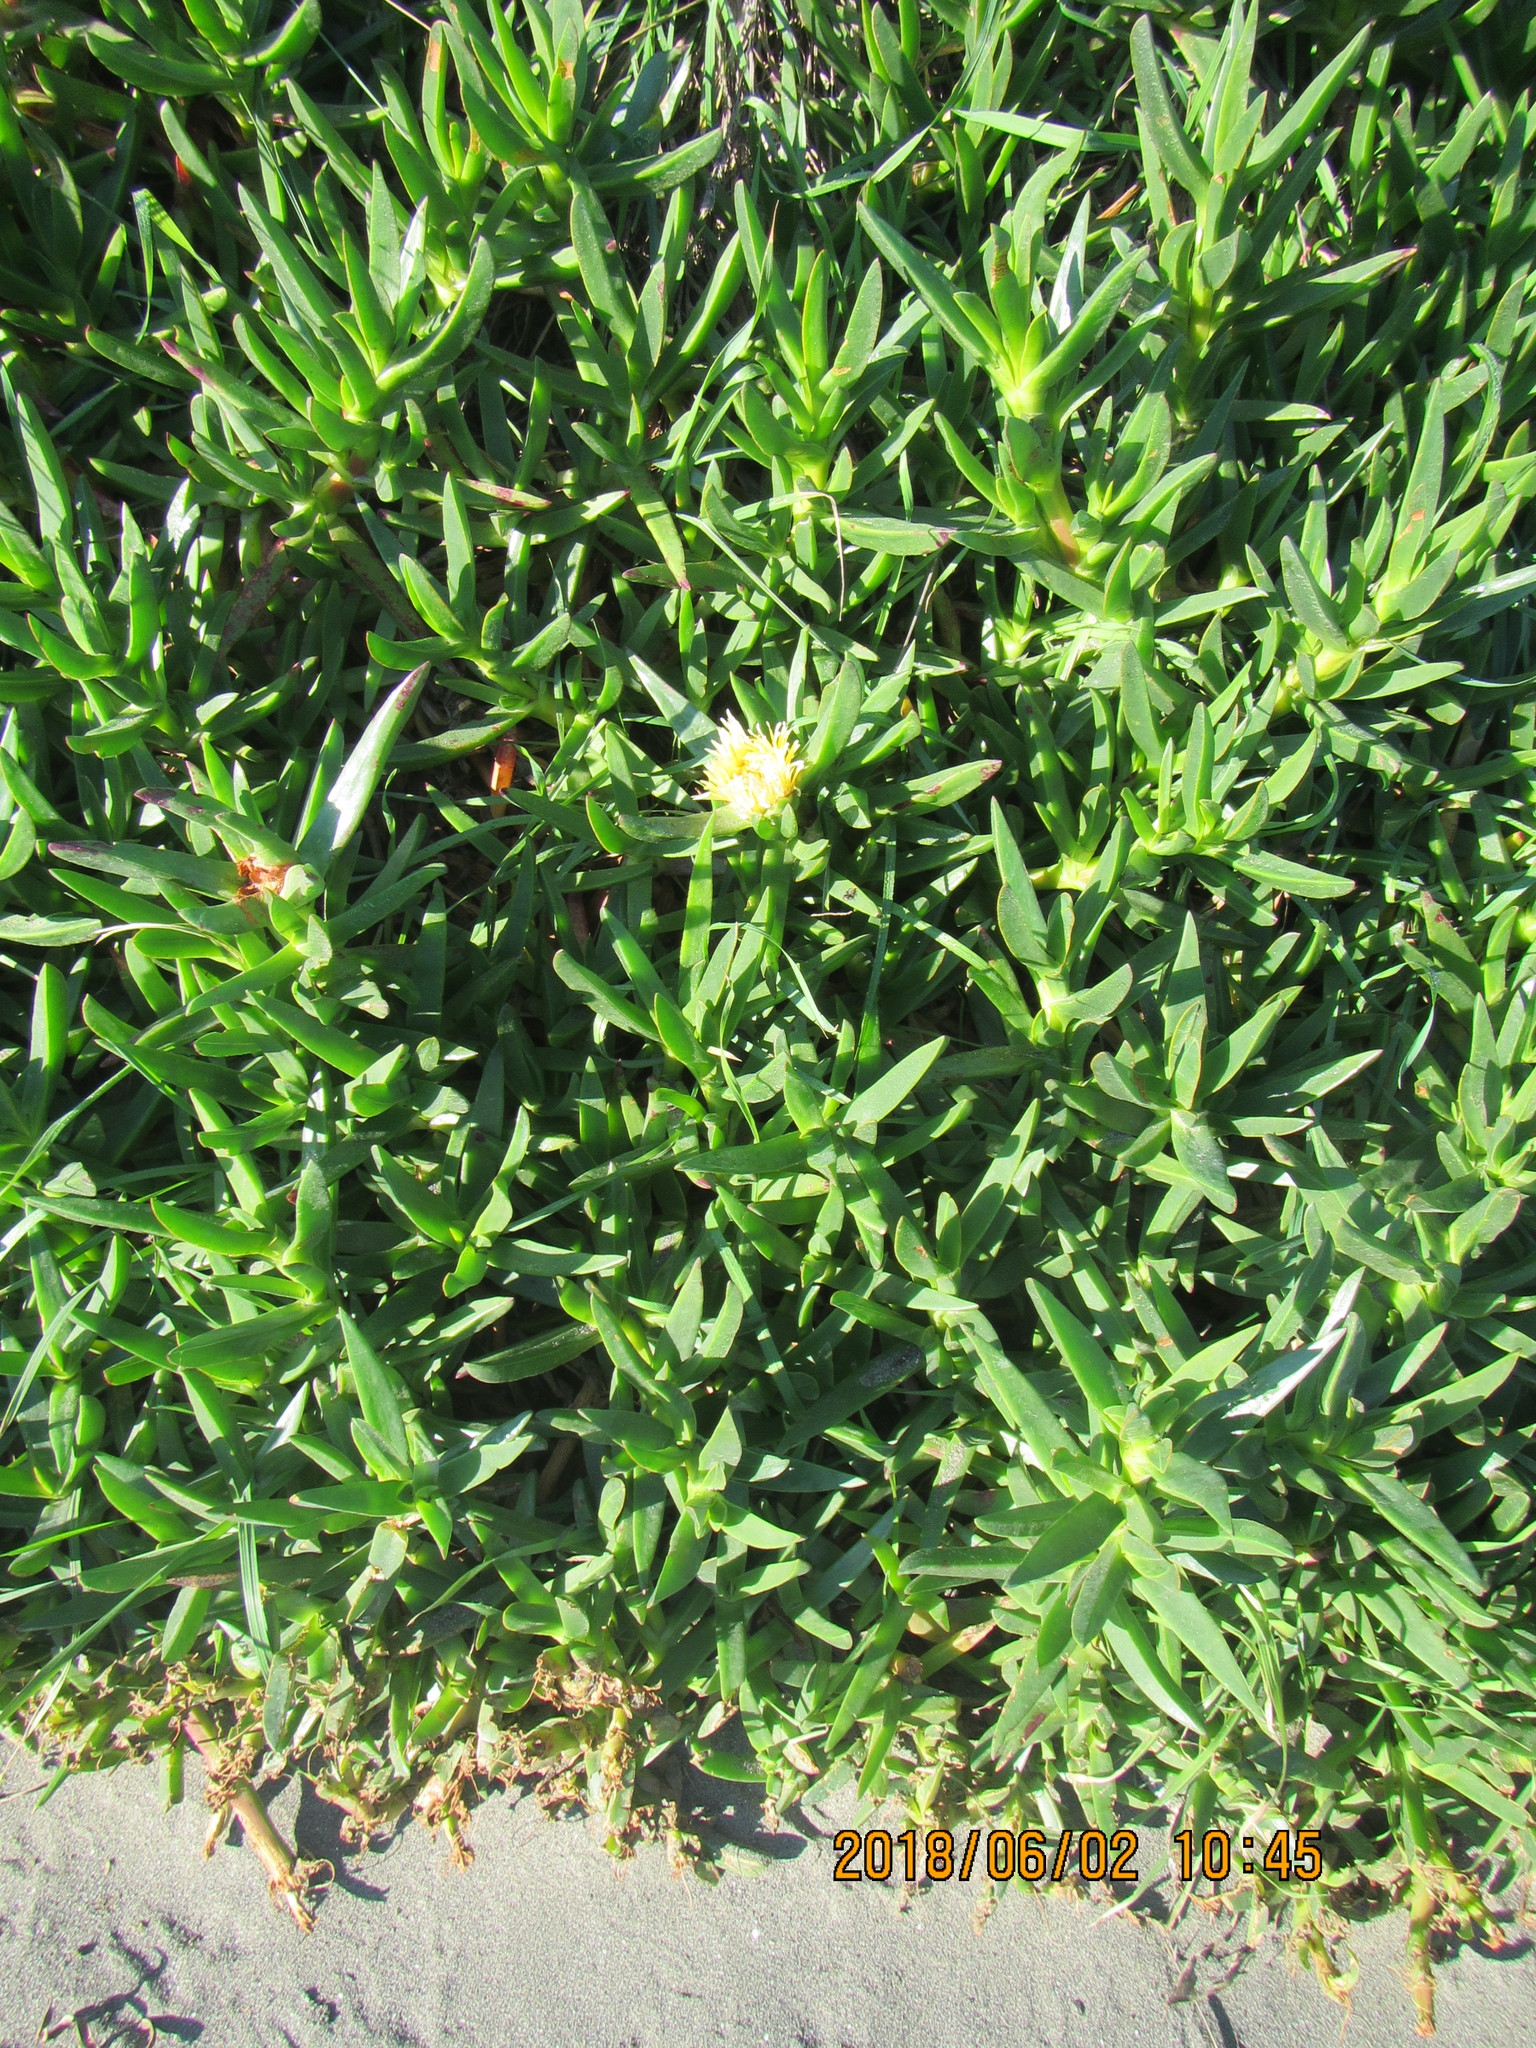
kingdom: Plantae
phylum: Tracheophyta
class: Magnoliopsida
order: Caryophyllales
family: Aizoaceae
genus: Carpobrotus
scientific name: Carpobrotus edulis
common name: Hottentot-fig
